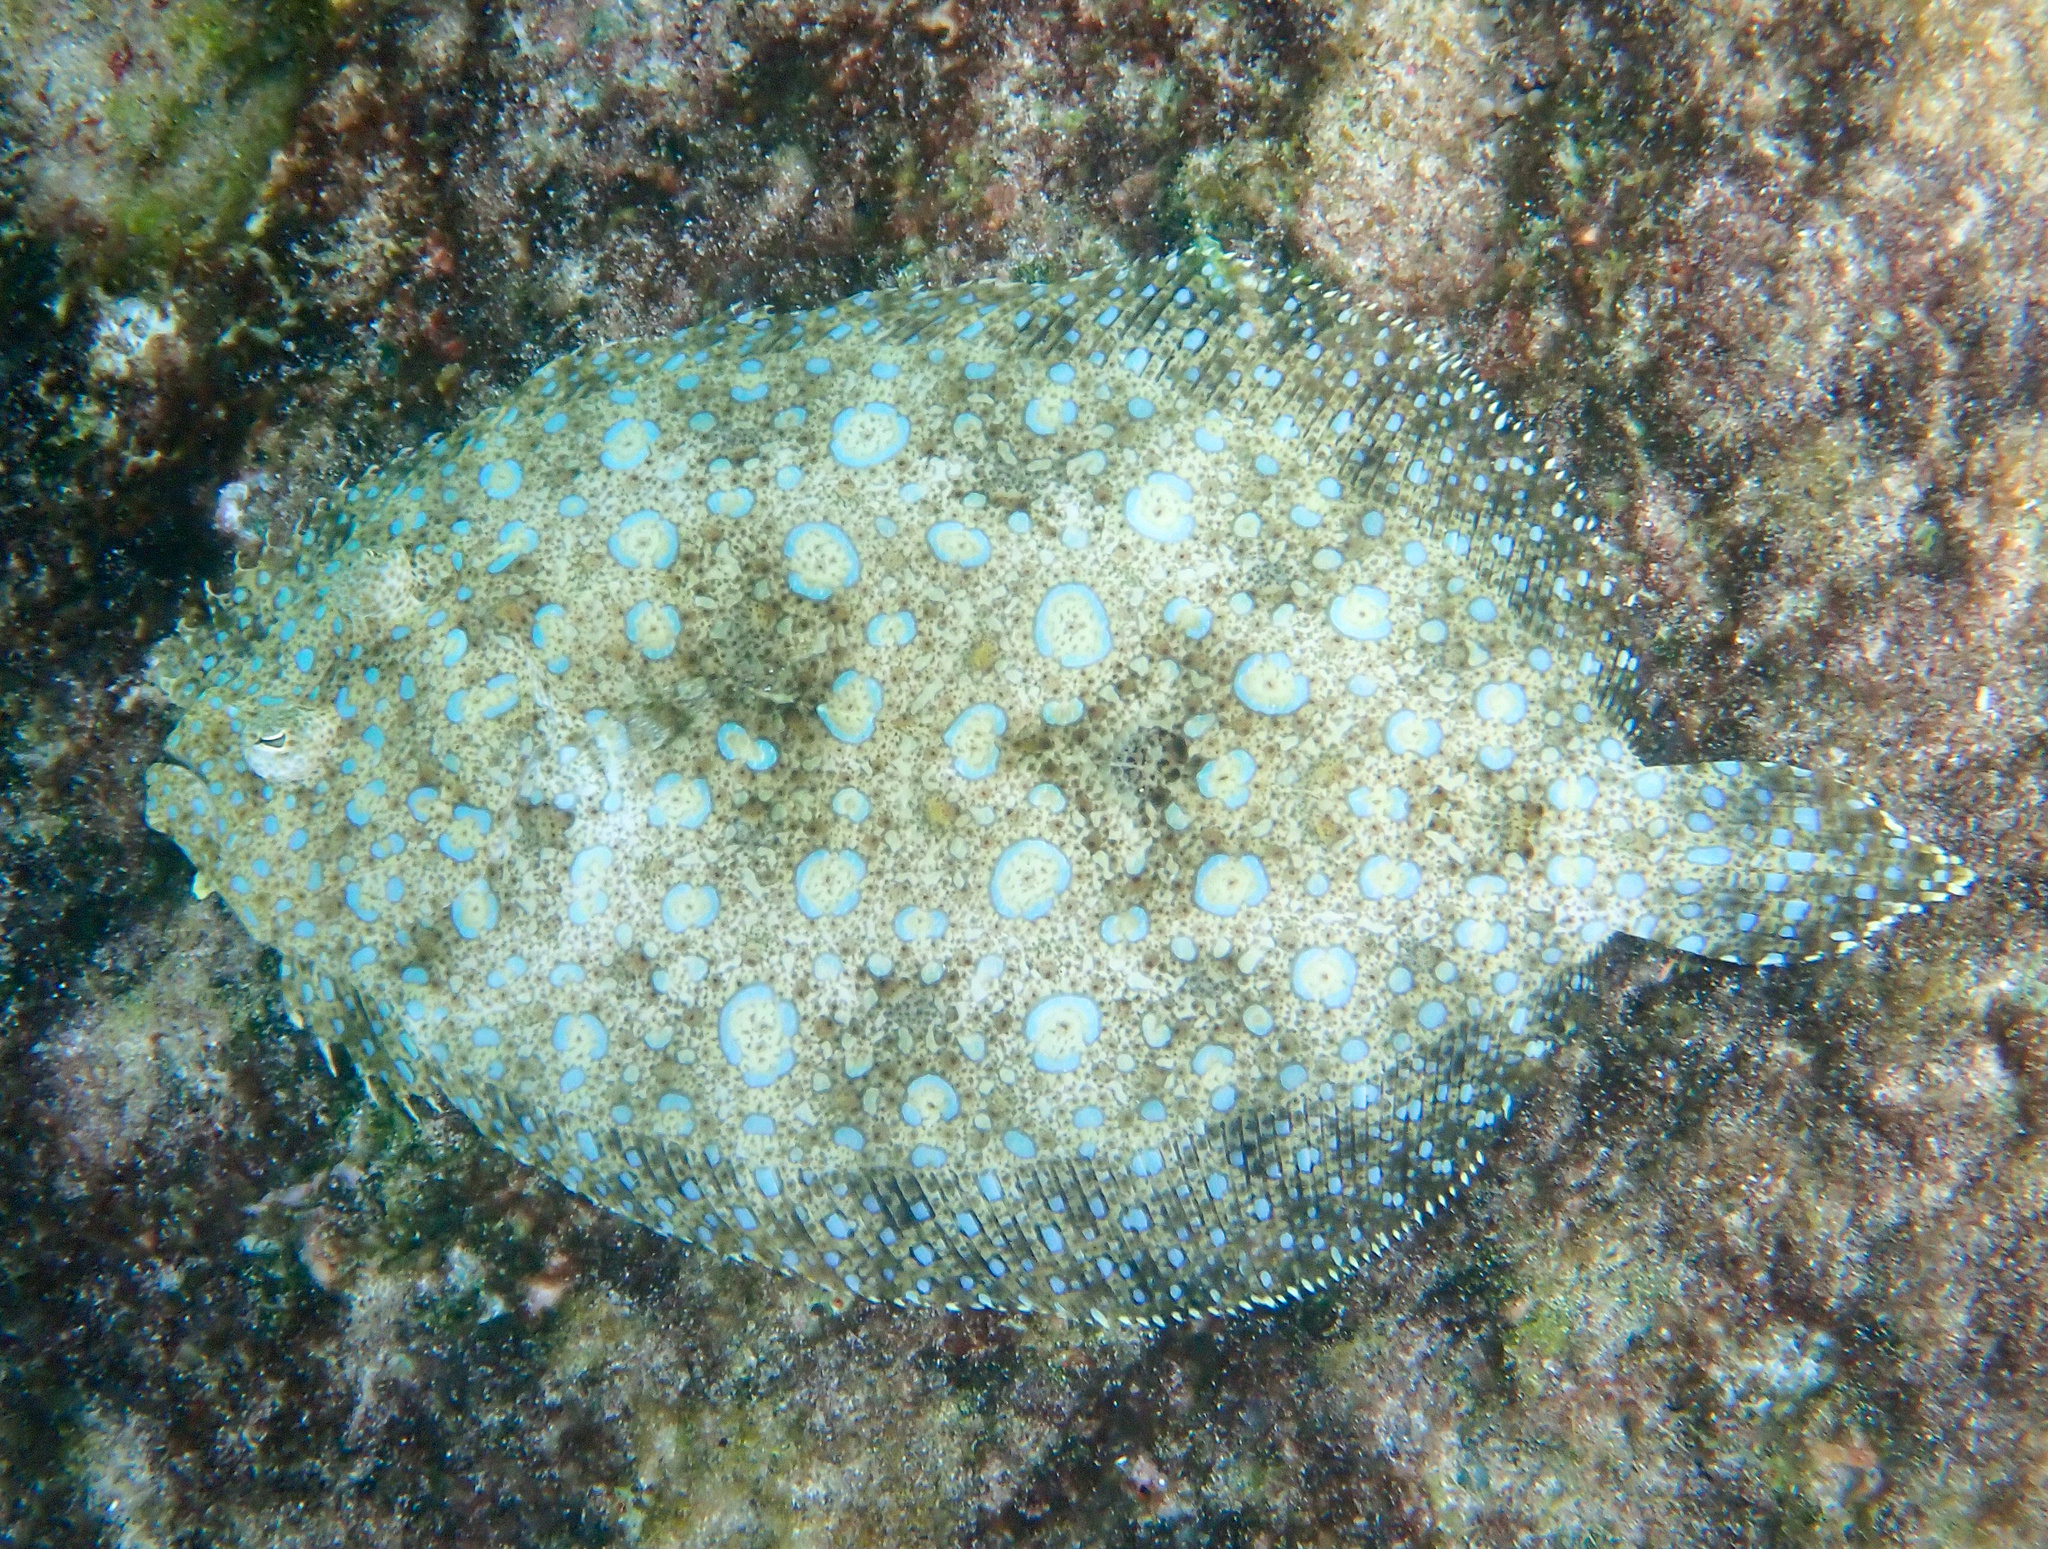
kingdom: Animalia
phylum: Chordata
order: Pleuronectiformes
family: Bothidae
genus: Bothus
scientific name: Bothus lunatus
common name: Peacock flounder
